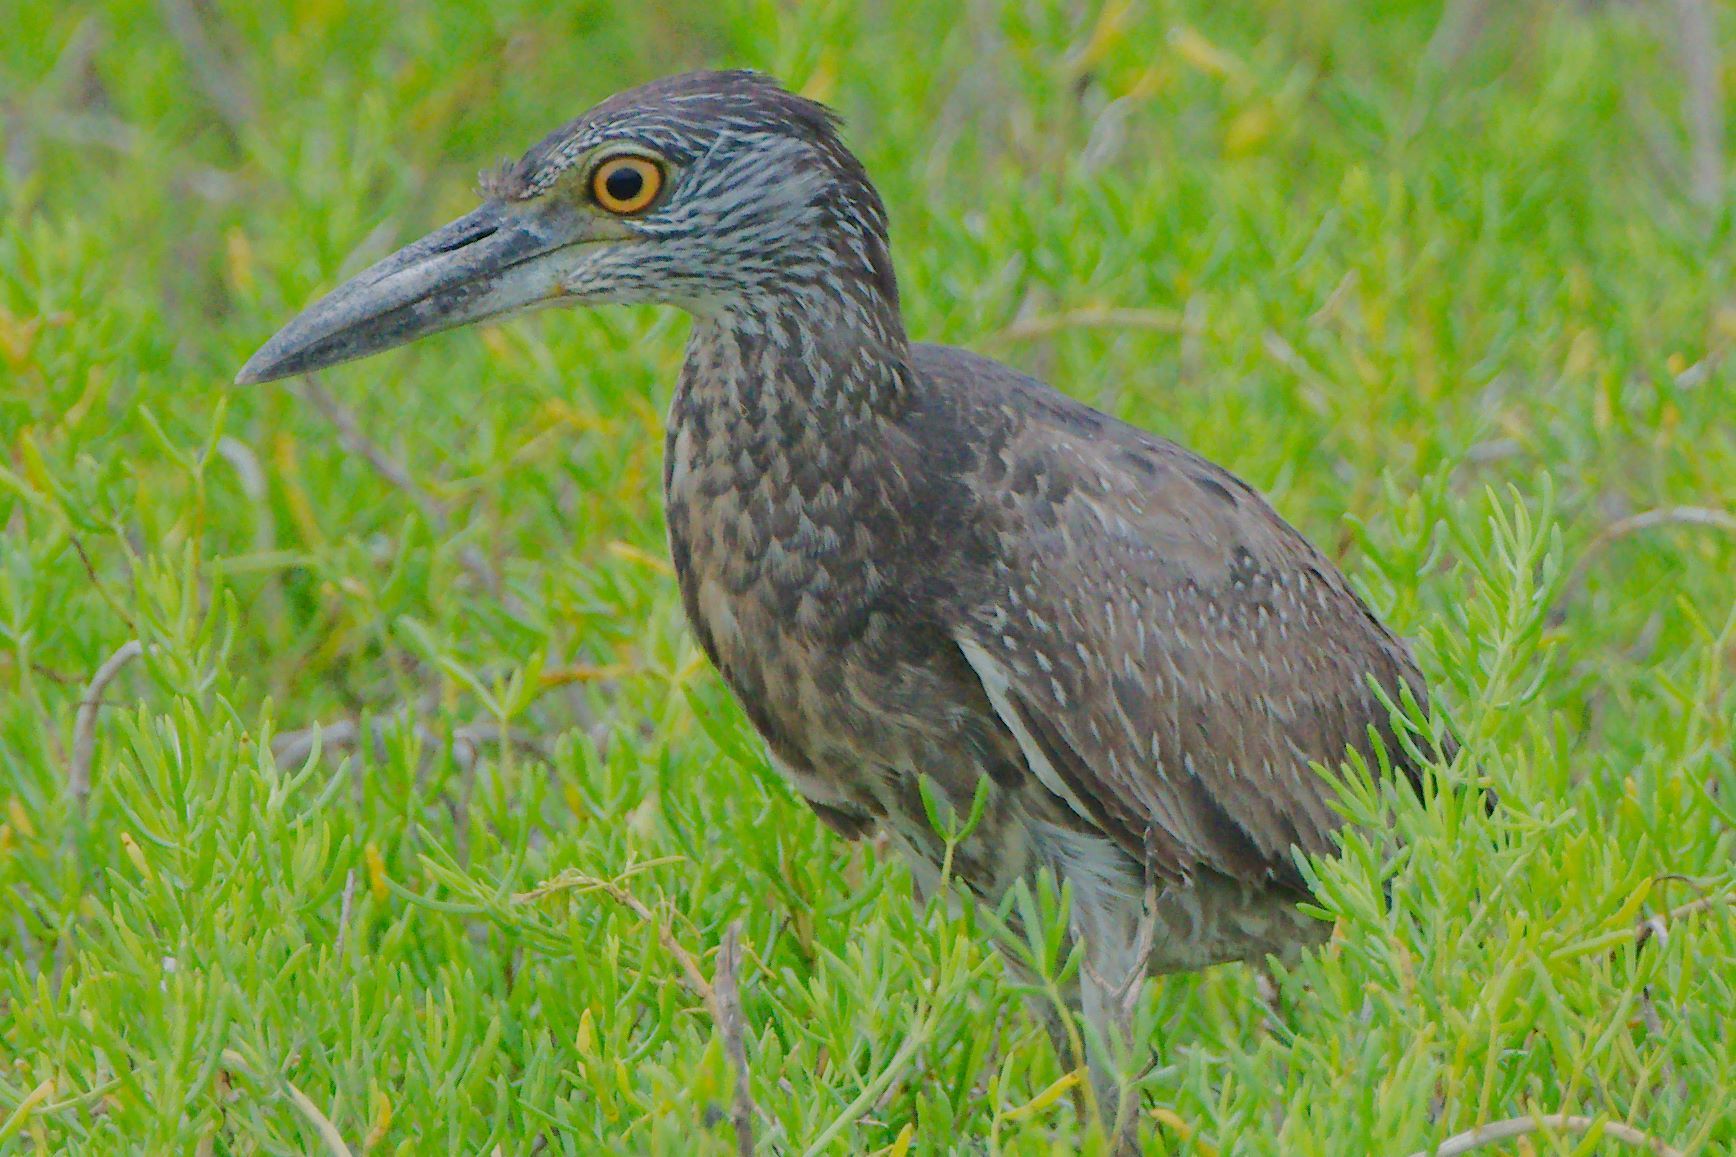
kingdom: Animalia
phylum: Chordata
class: Aves
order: Pelecaniformes
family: Ardeidae
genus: Nyctanassa
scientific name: Nyctanassa violacea
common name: Yellow-crowned night heron
